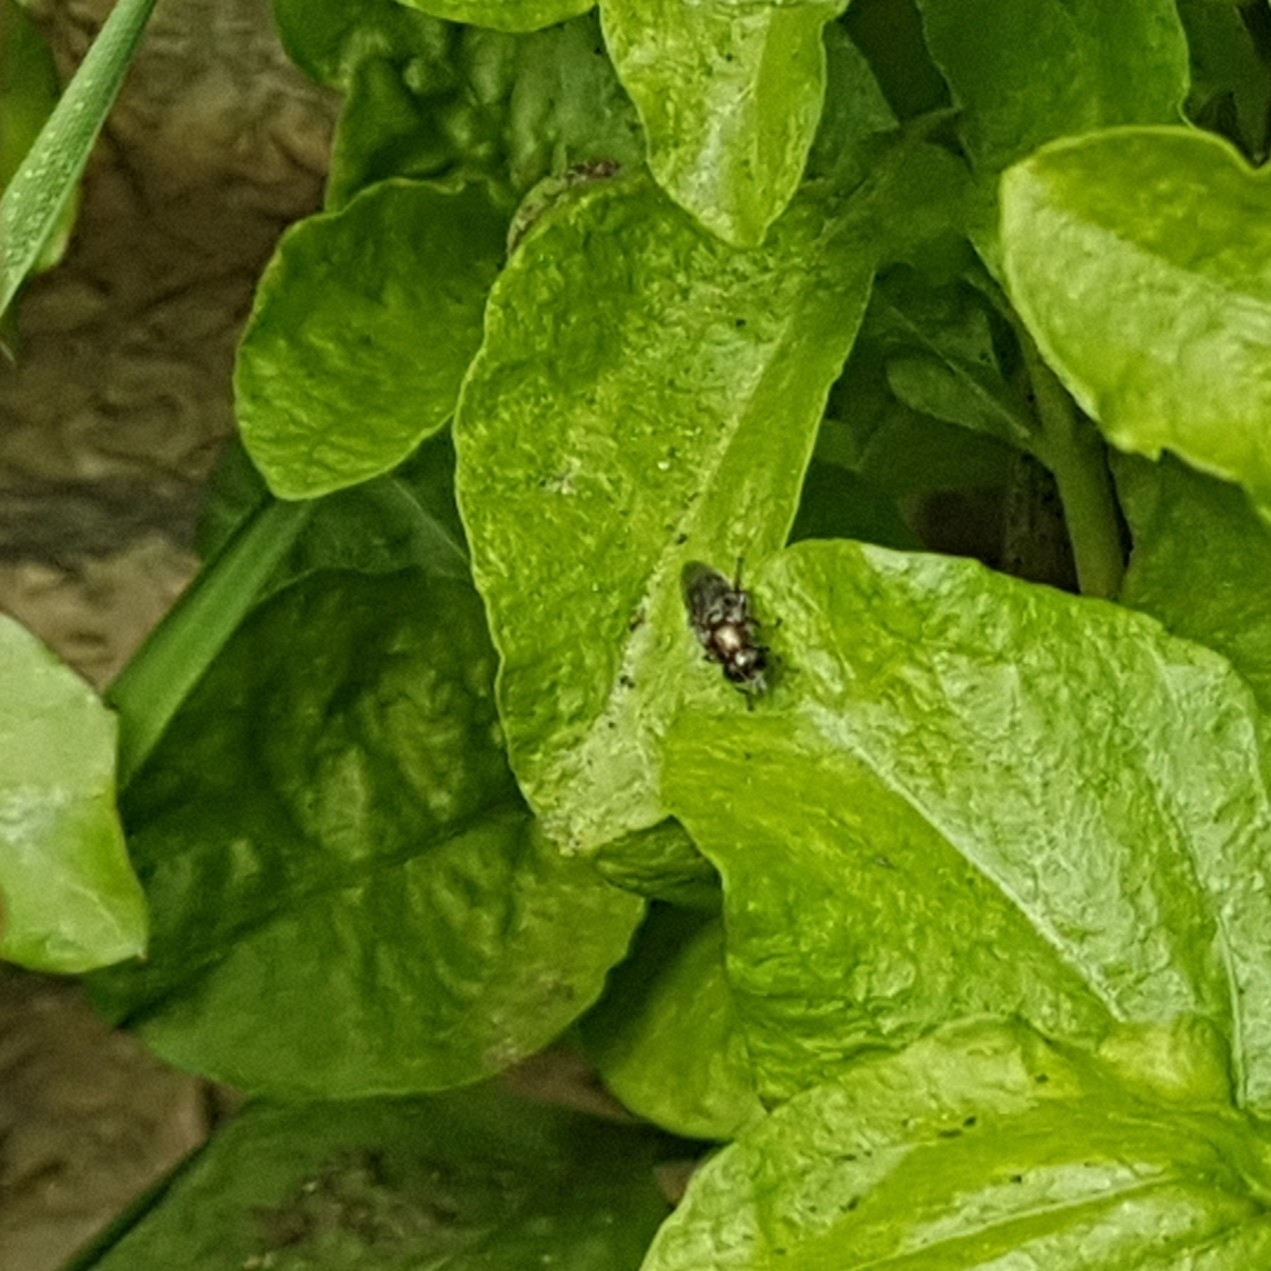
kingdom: Animalia
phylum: Arthropoda
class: Insecta
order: Diptera
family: Syrphidae
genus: Eumerus
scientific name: Eumerus
